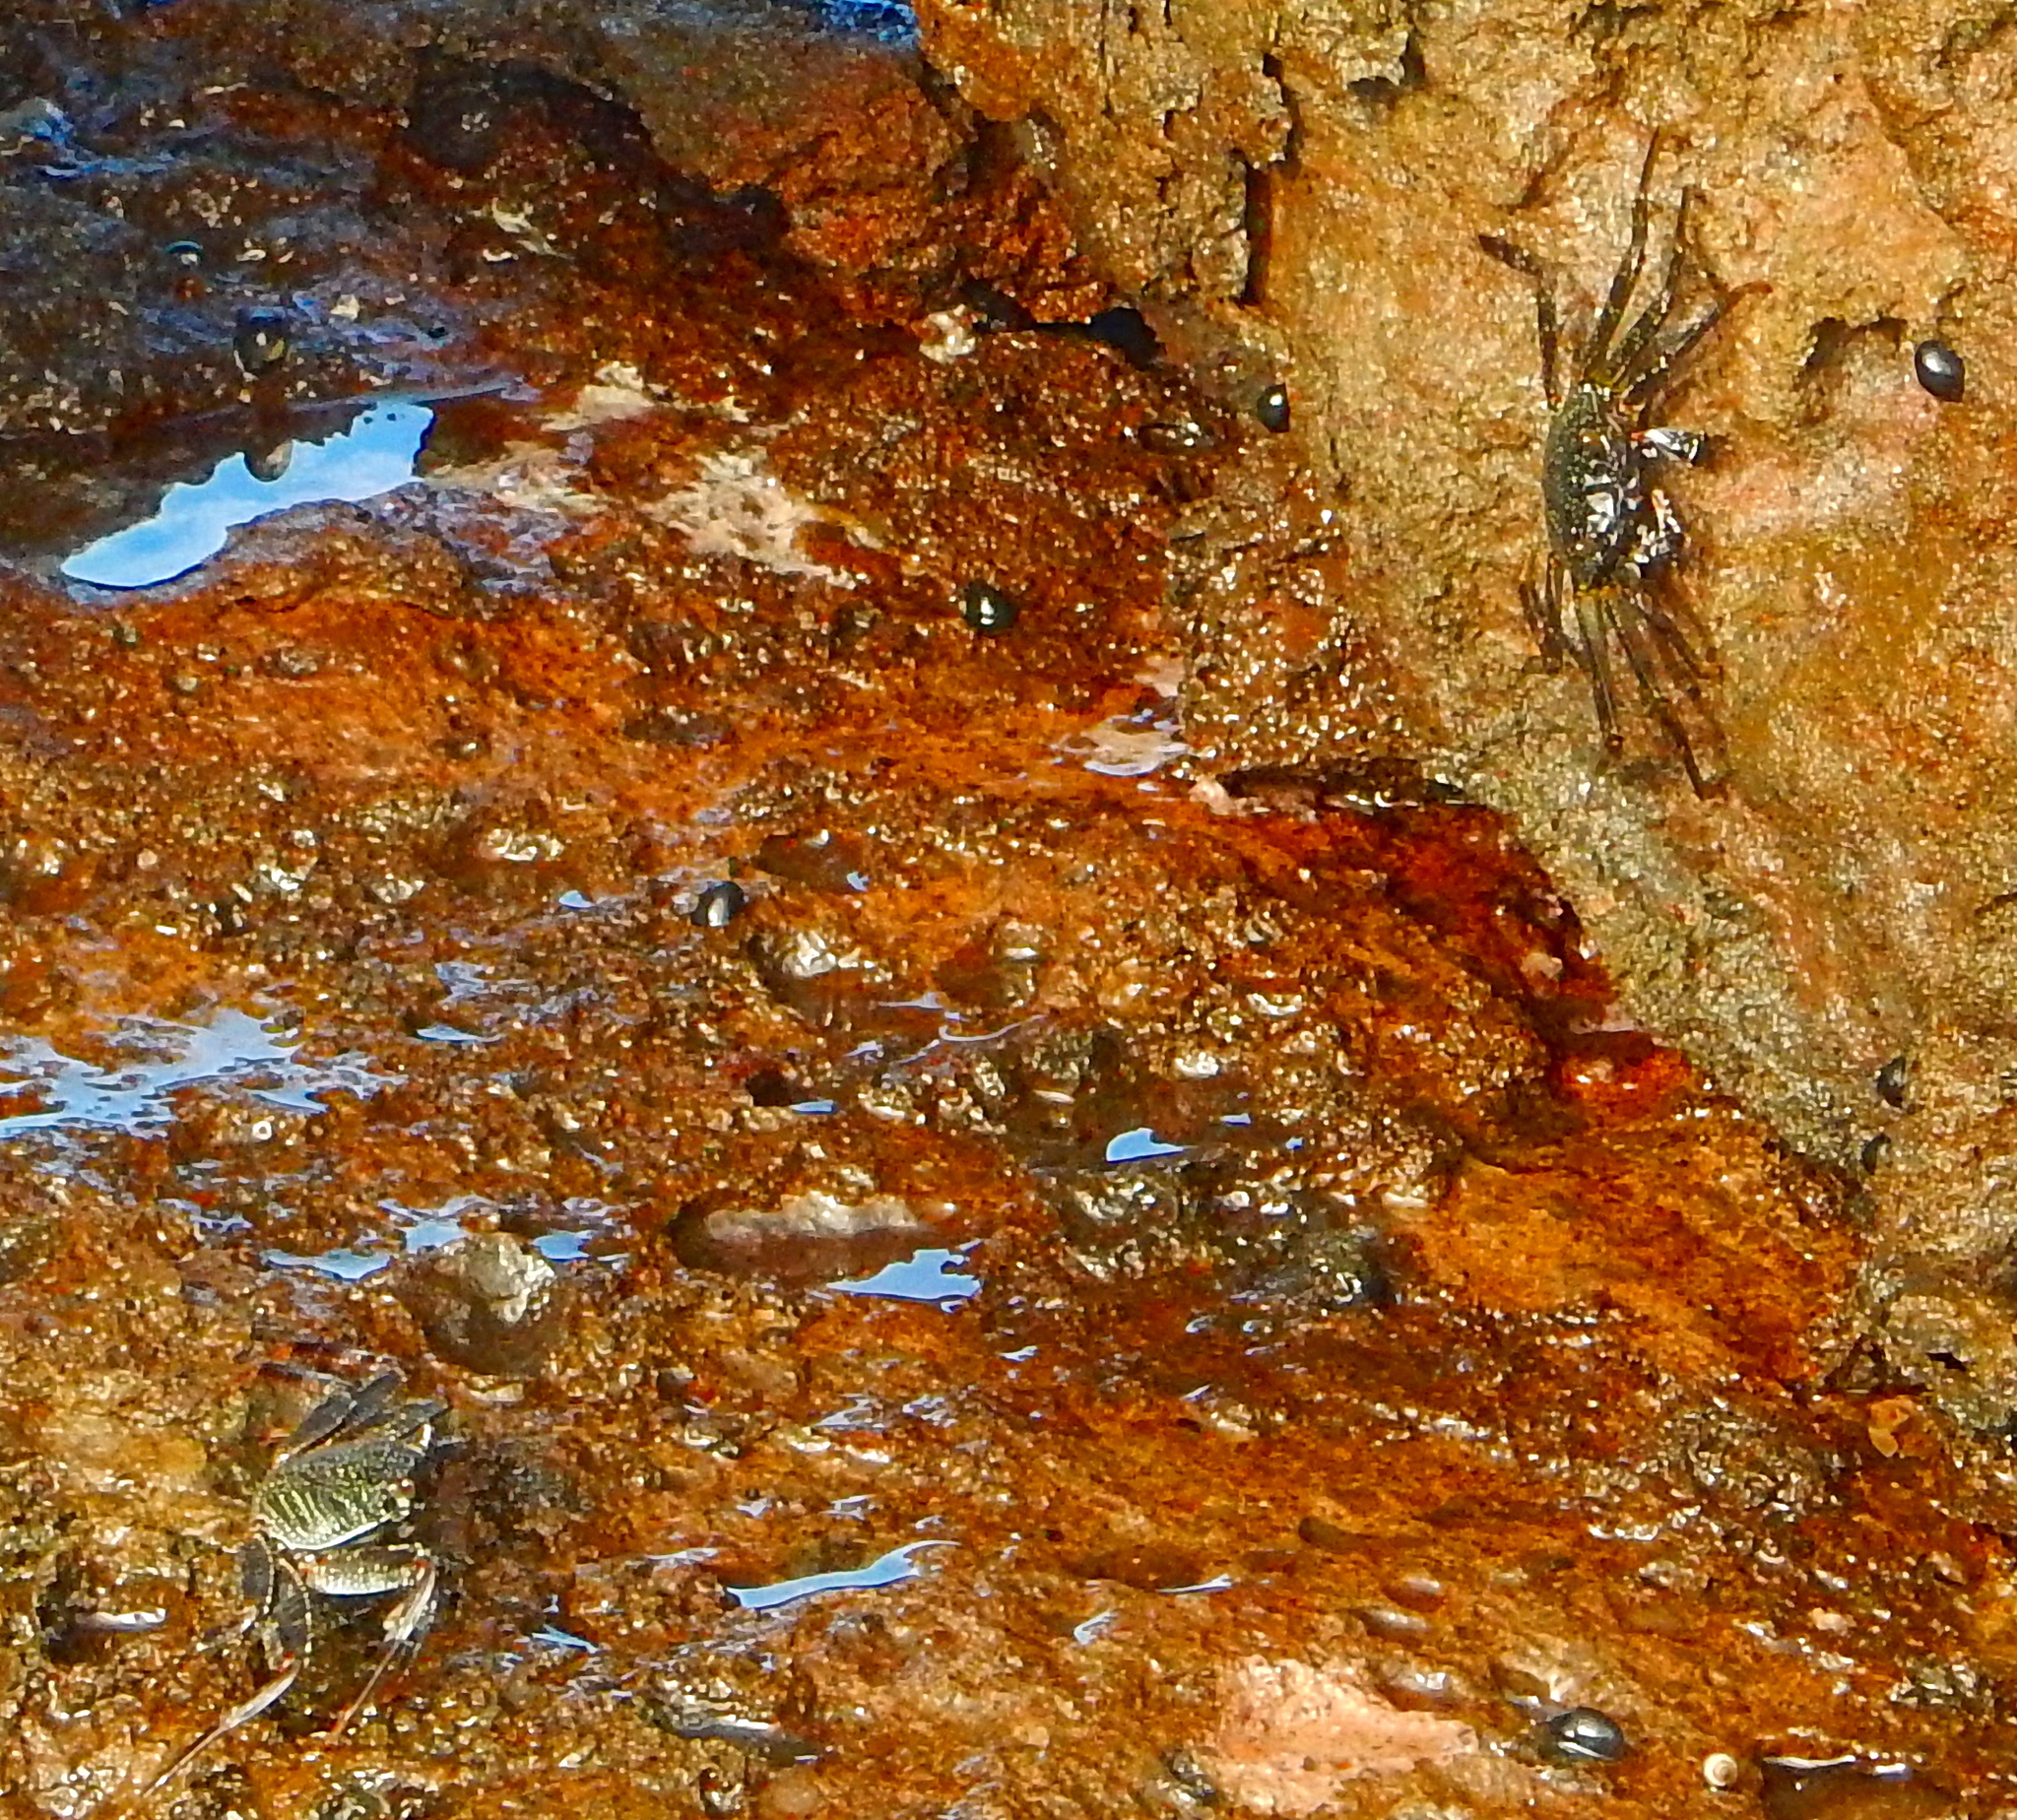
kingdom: Animalia
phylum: Arthropoda
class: Malacostraca
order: Decapoda
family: Grapsidae
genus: Grapsus
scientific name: Grapsus tenuicrustatus
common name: Natal lightfoot crab
